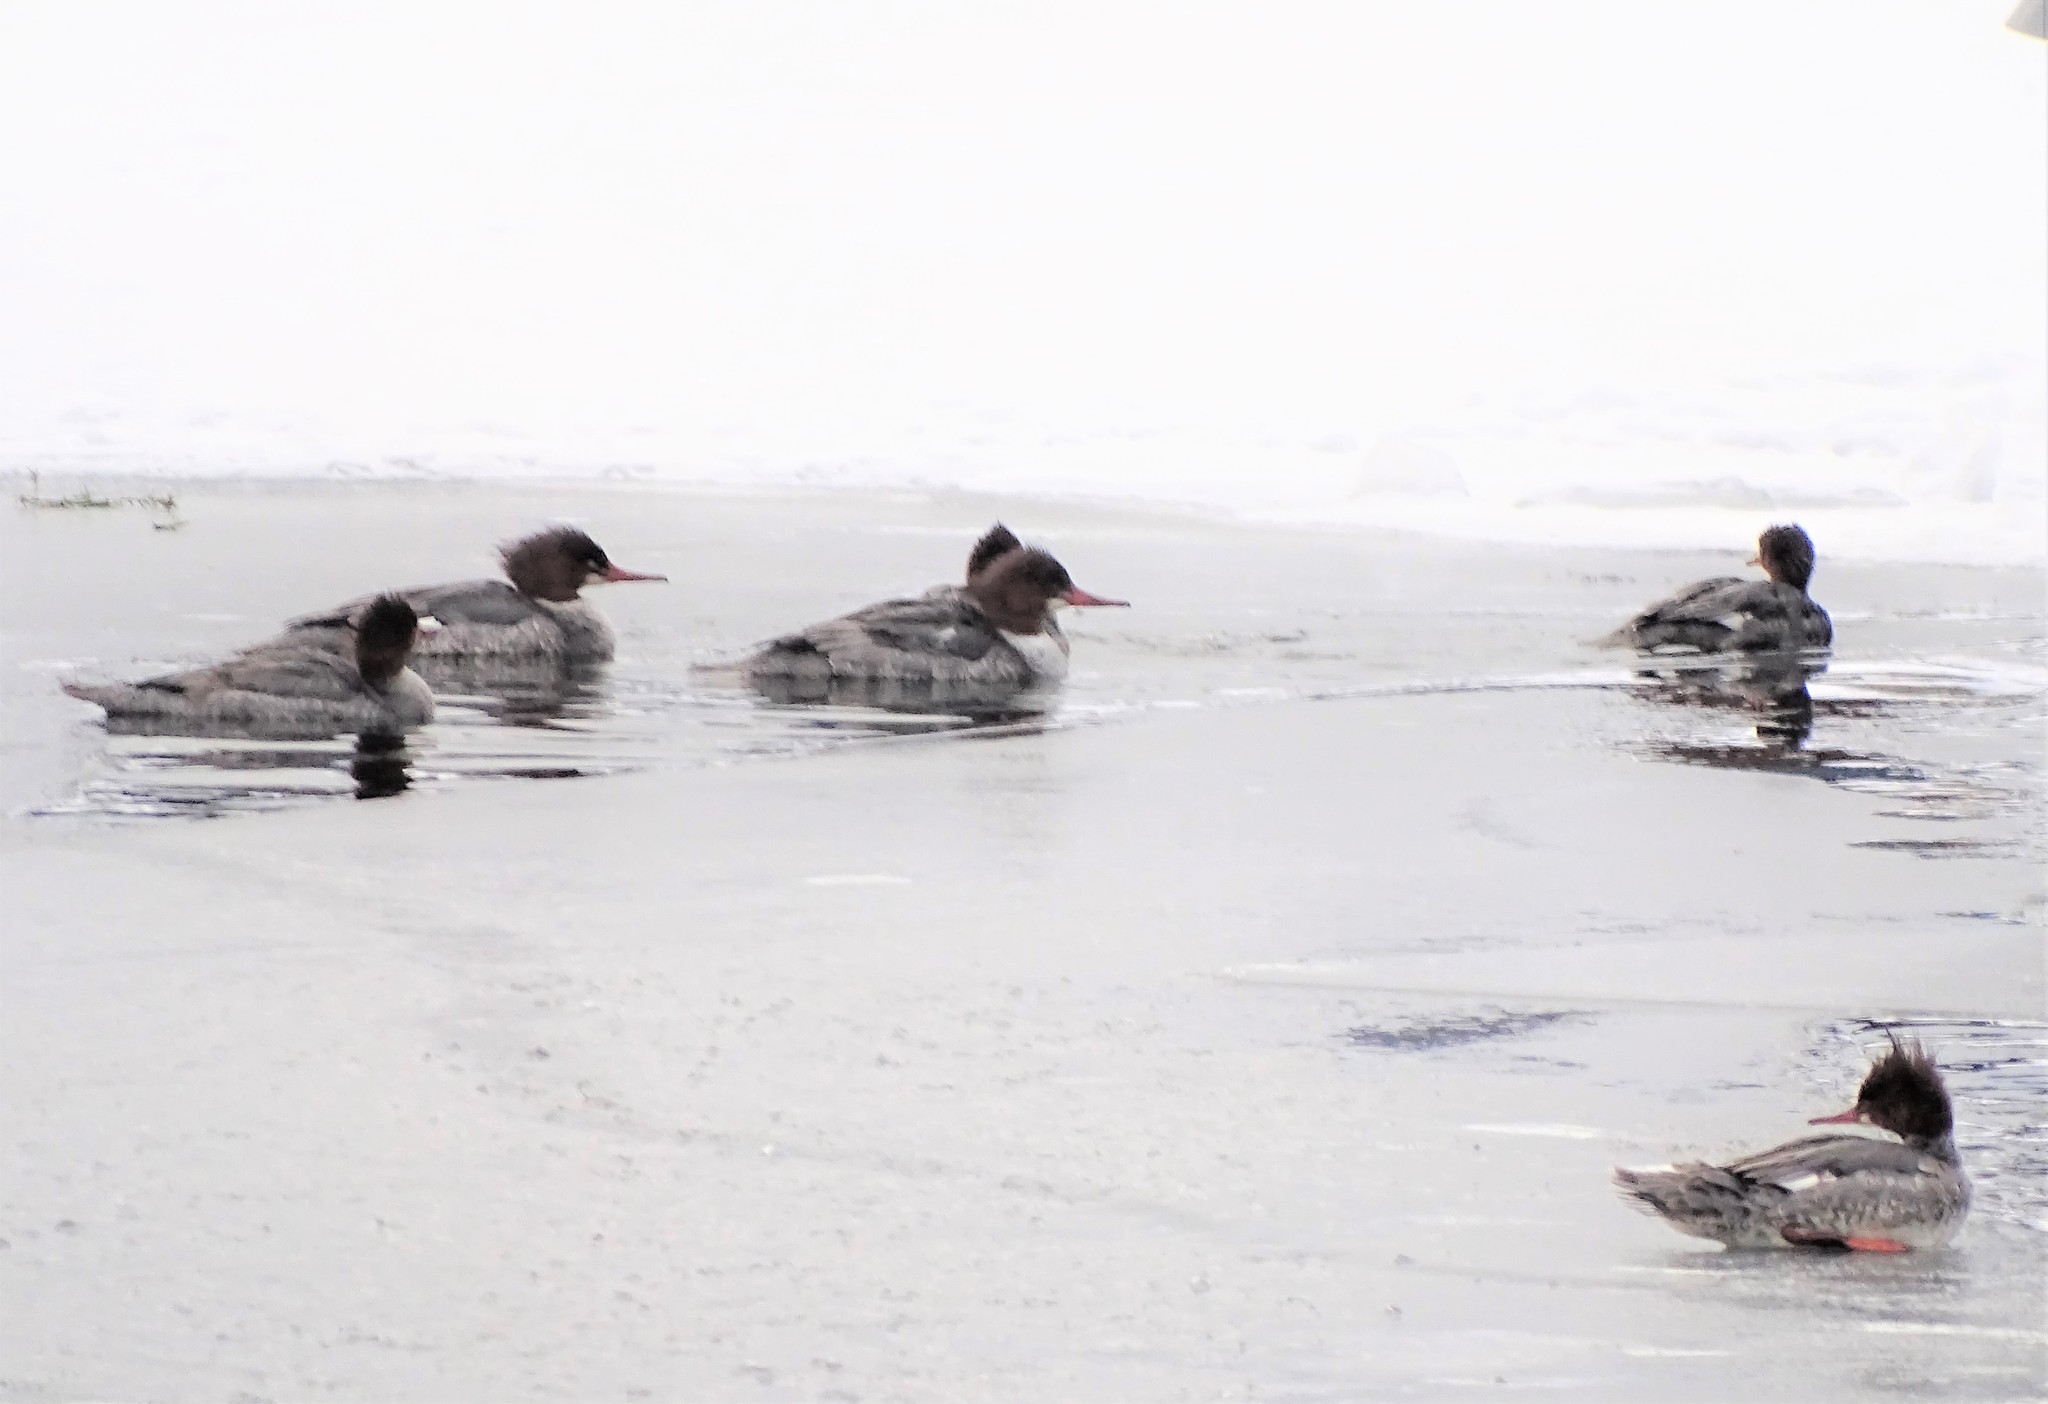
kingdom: Animalia
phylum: Chordata
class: Aves
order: Anseriformes
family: Anatidae
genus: Mergus
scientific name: Mergus merganser
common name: Common merganser
